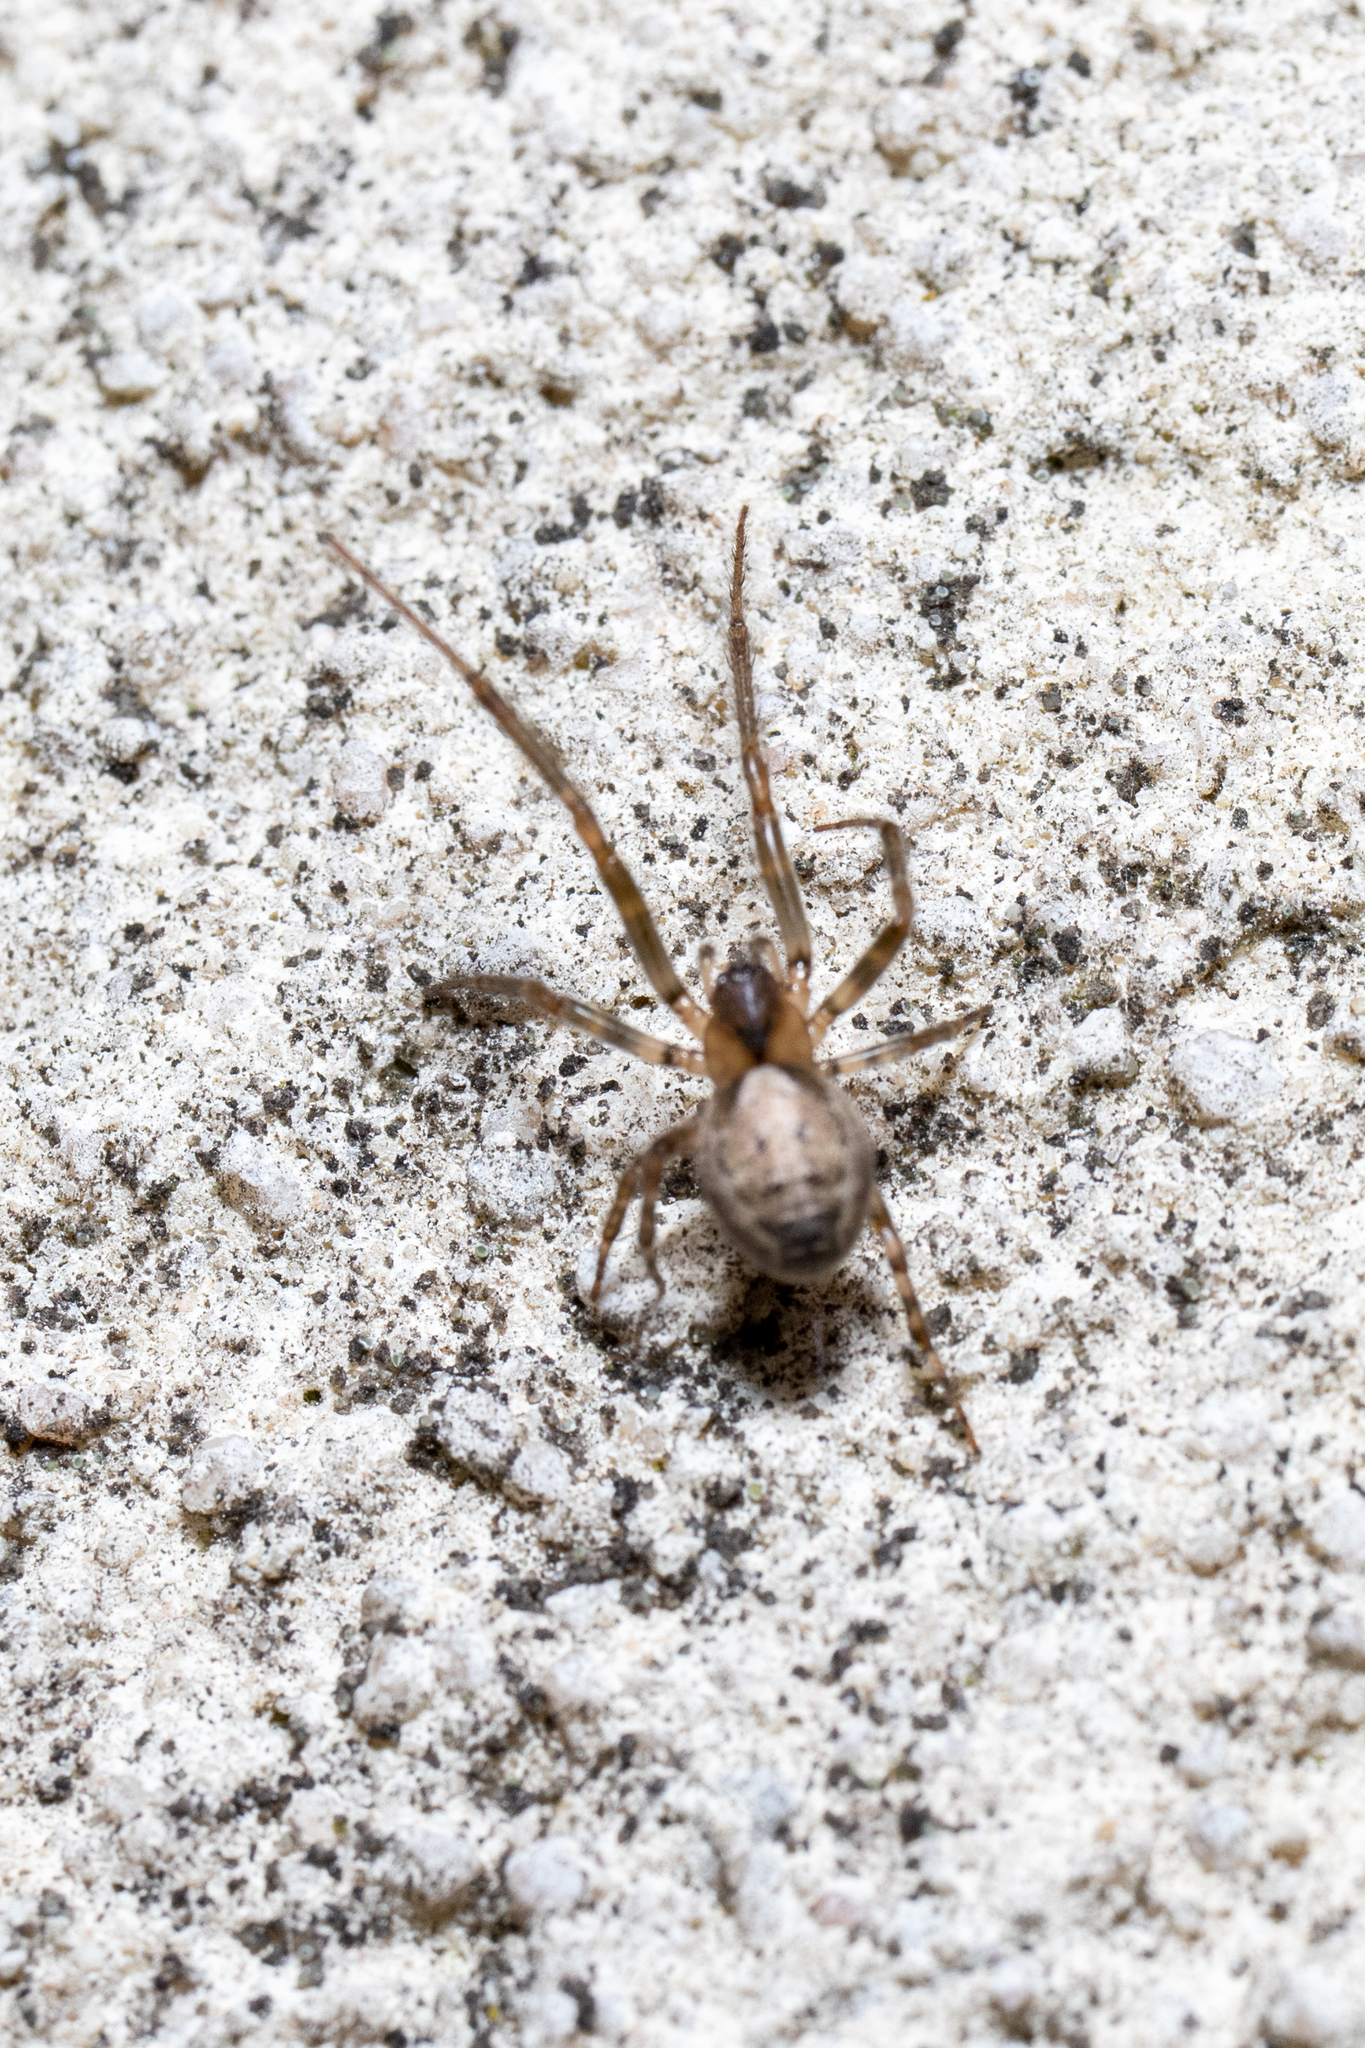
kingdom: Animalia
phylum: Arthropoda
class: Arachnida
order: Araneae
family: Araneidae
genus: Zygiella
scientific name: Zygiella x-notata
